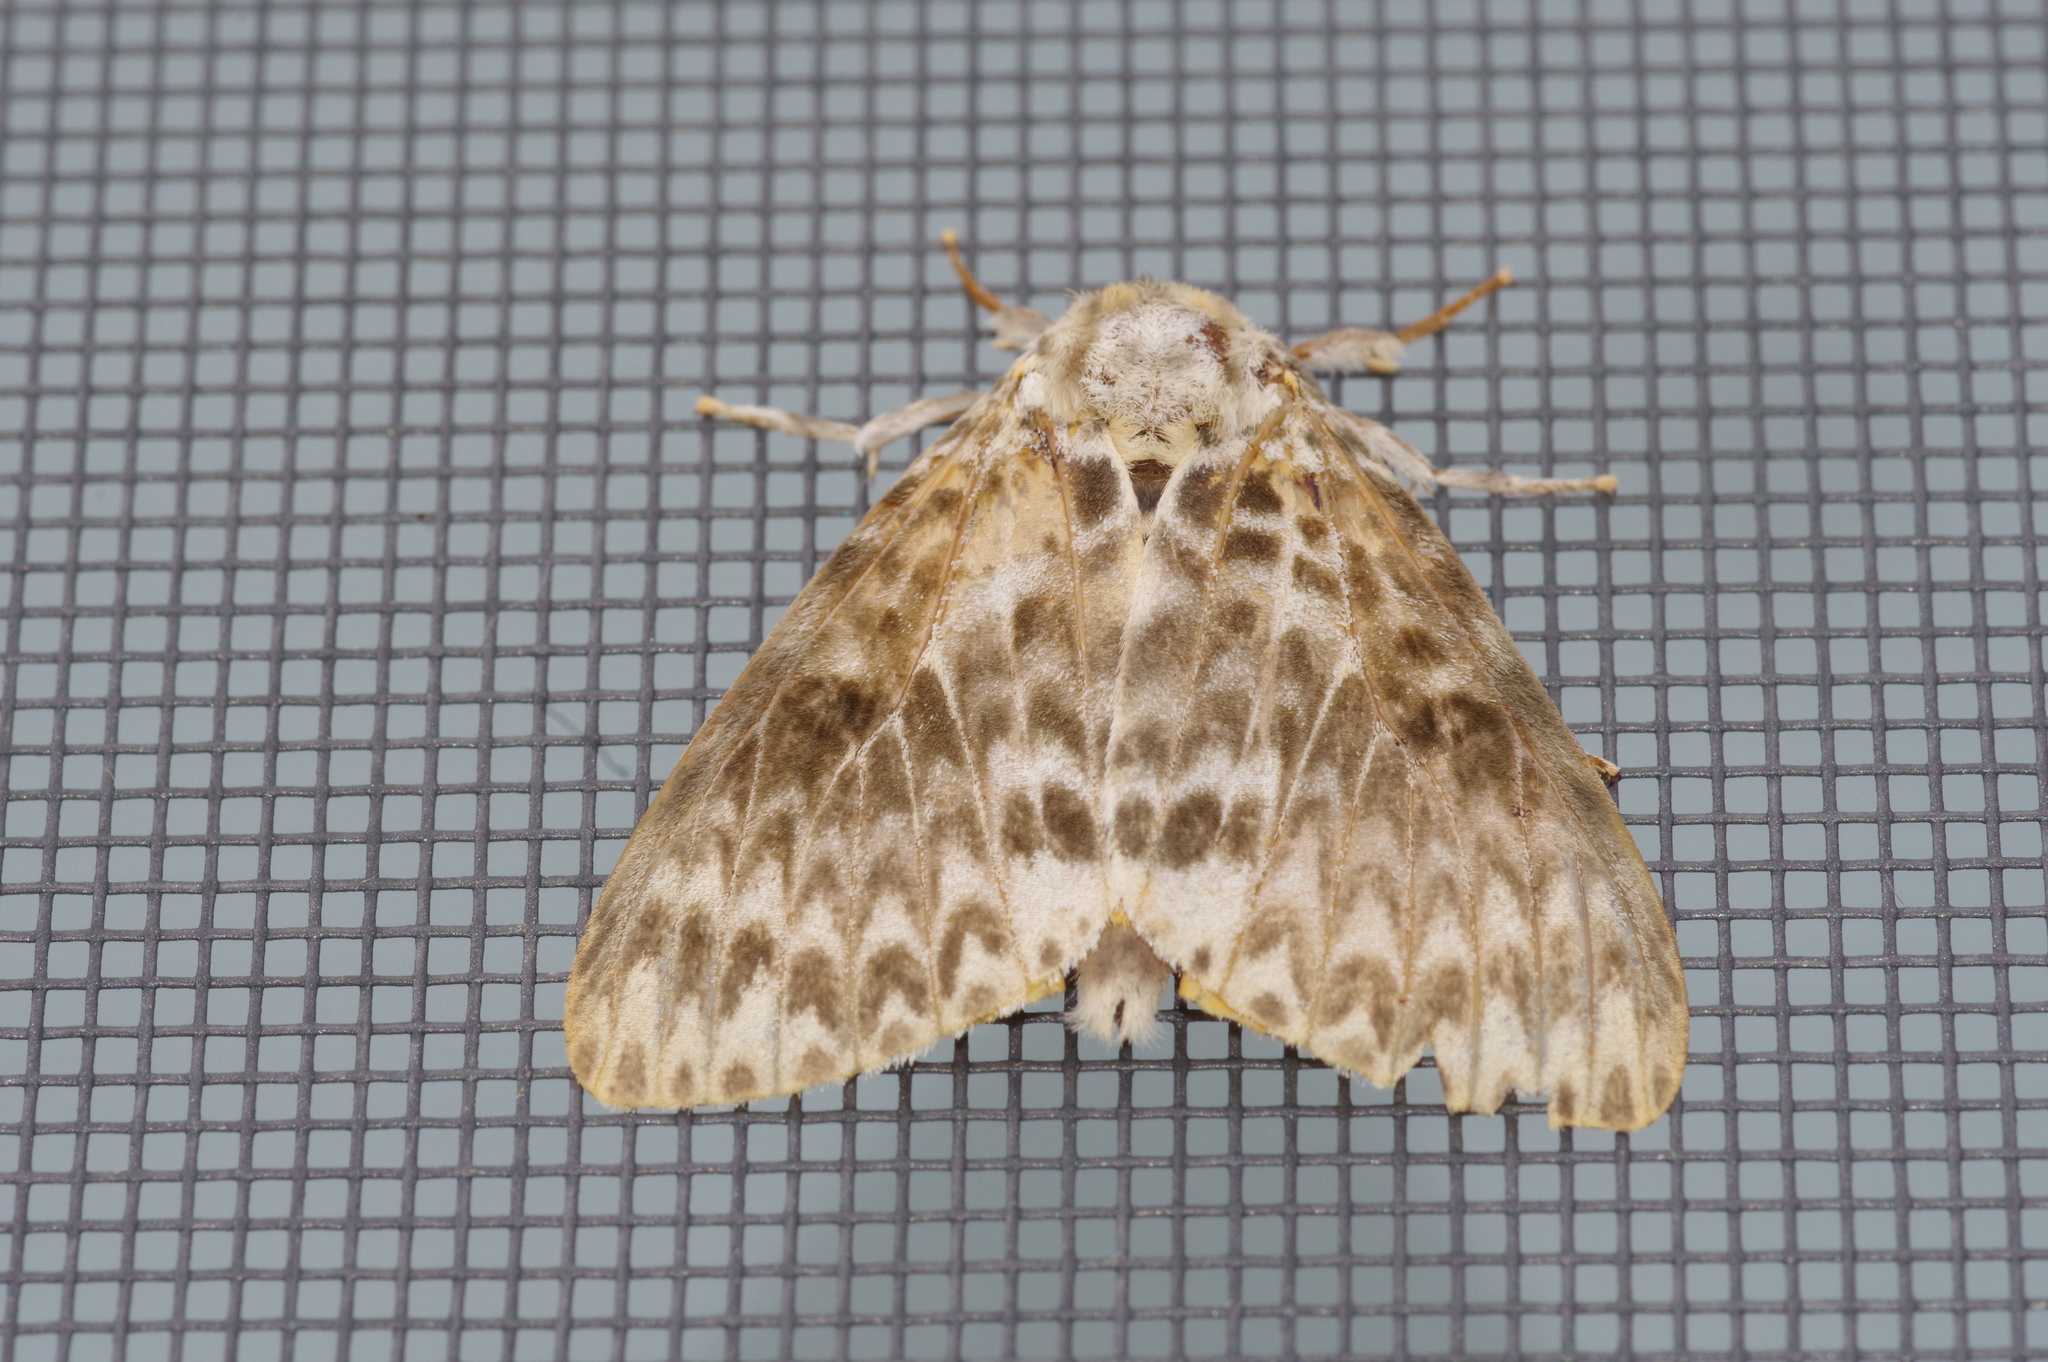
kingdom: Animalia
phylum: Arthropoda
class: Insecta
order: Lepidoptera
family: Erebidae
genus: Lymantria
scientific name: Lymantria mathura
